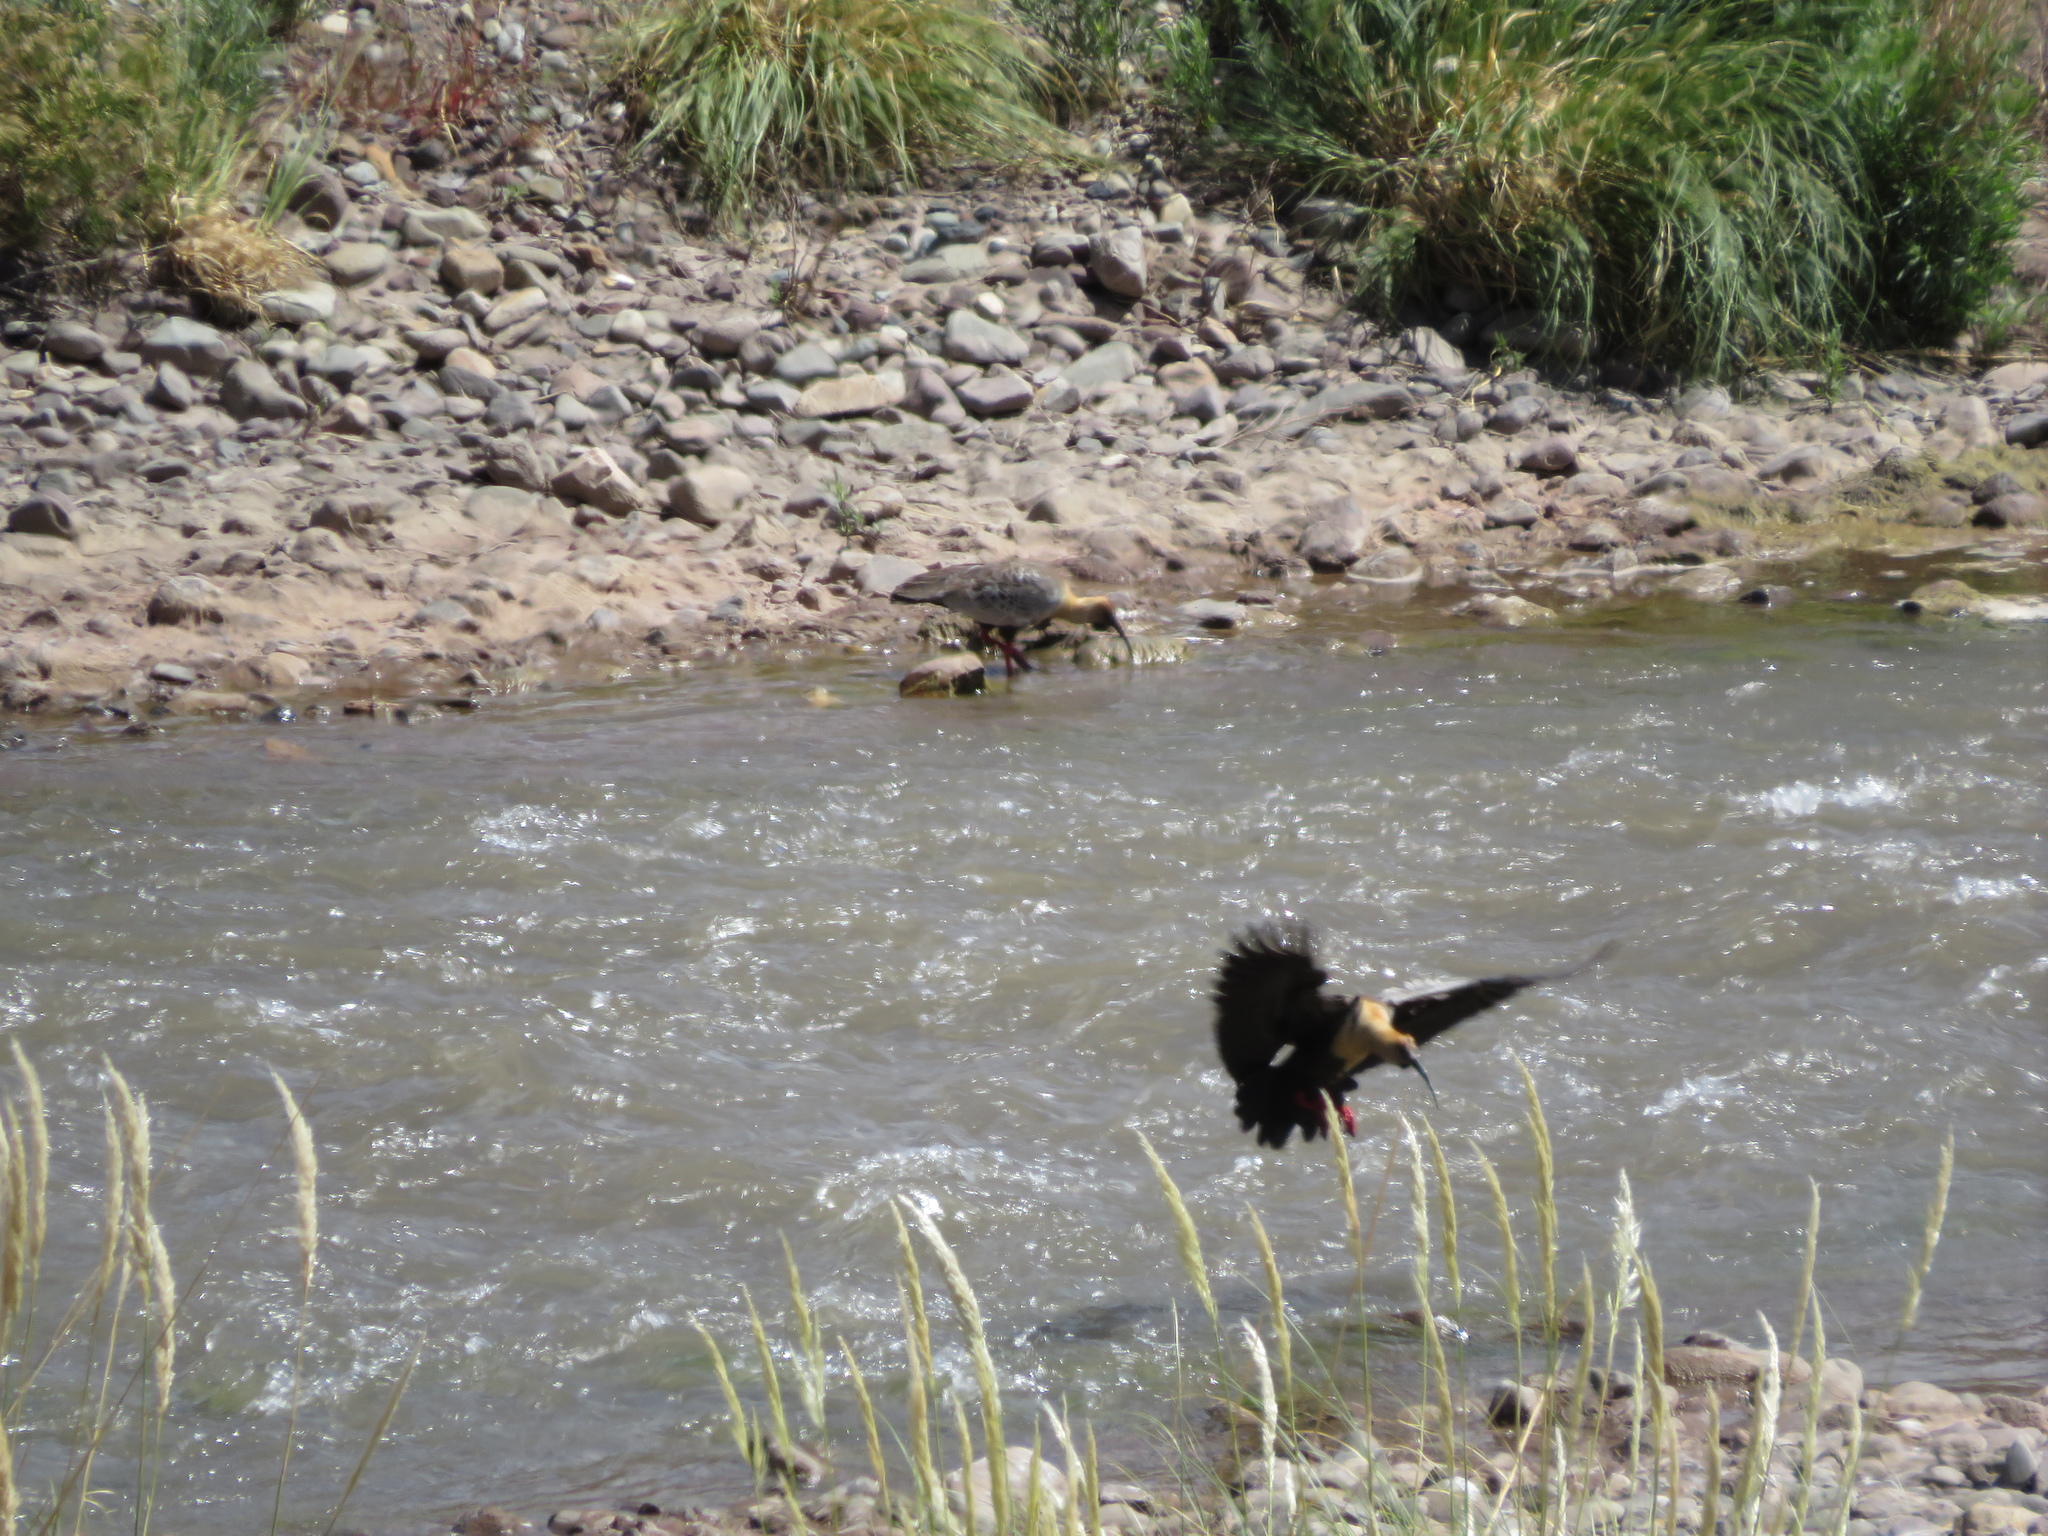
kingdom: Animalia
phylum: Chordata
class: Aves
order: Pelecaniformes
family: Threskiornithidae
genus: Theristicus
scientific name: Theristicus melanopis
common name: Black-faced ibis
